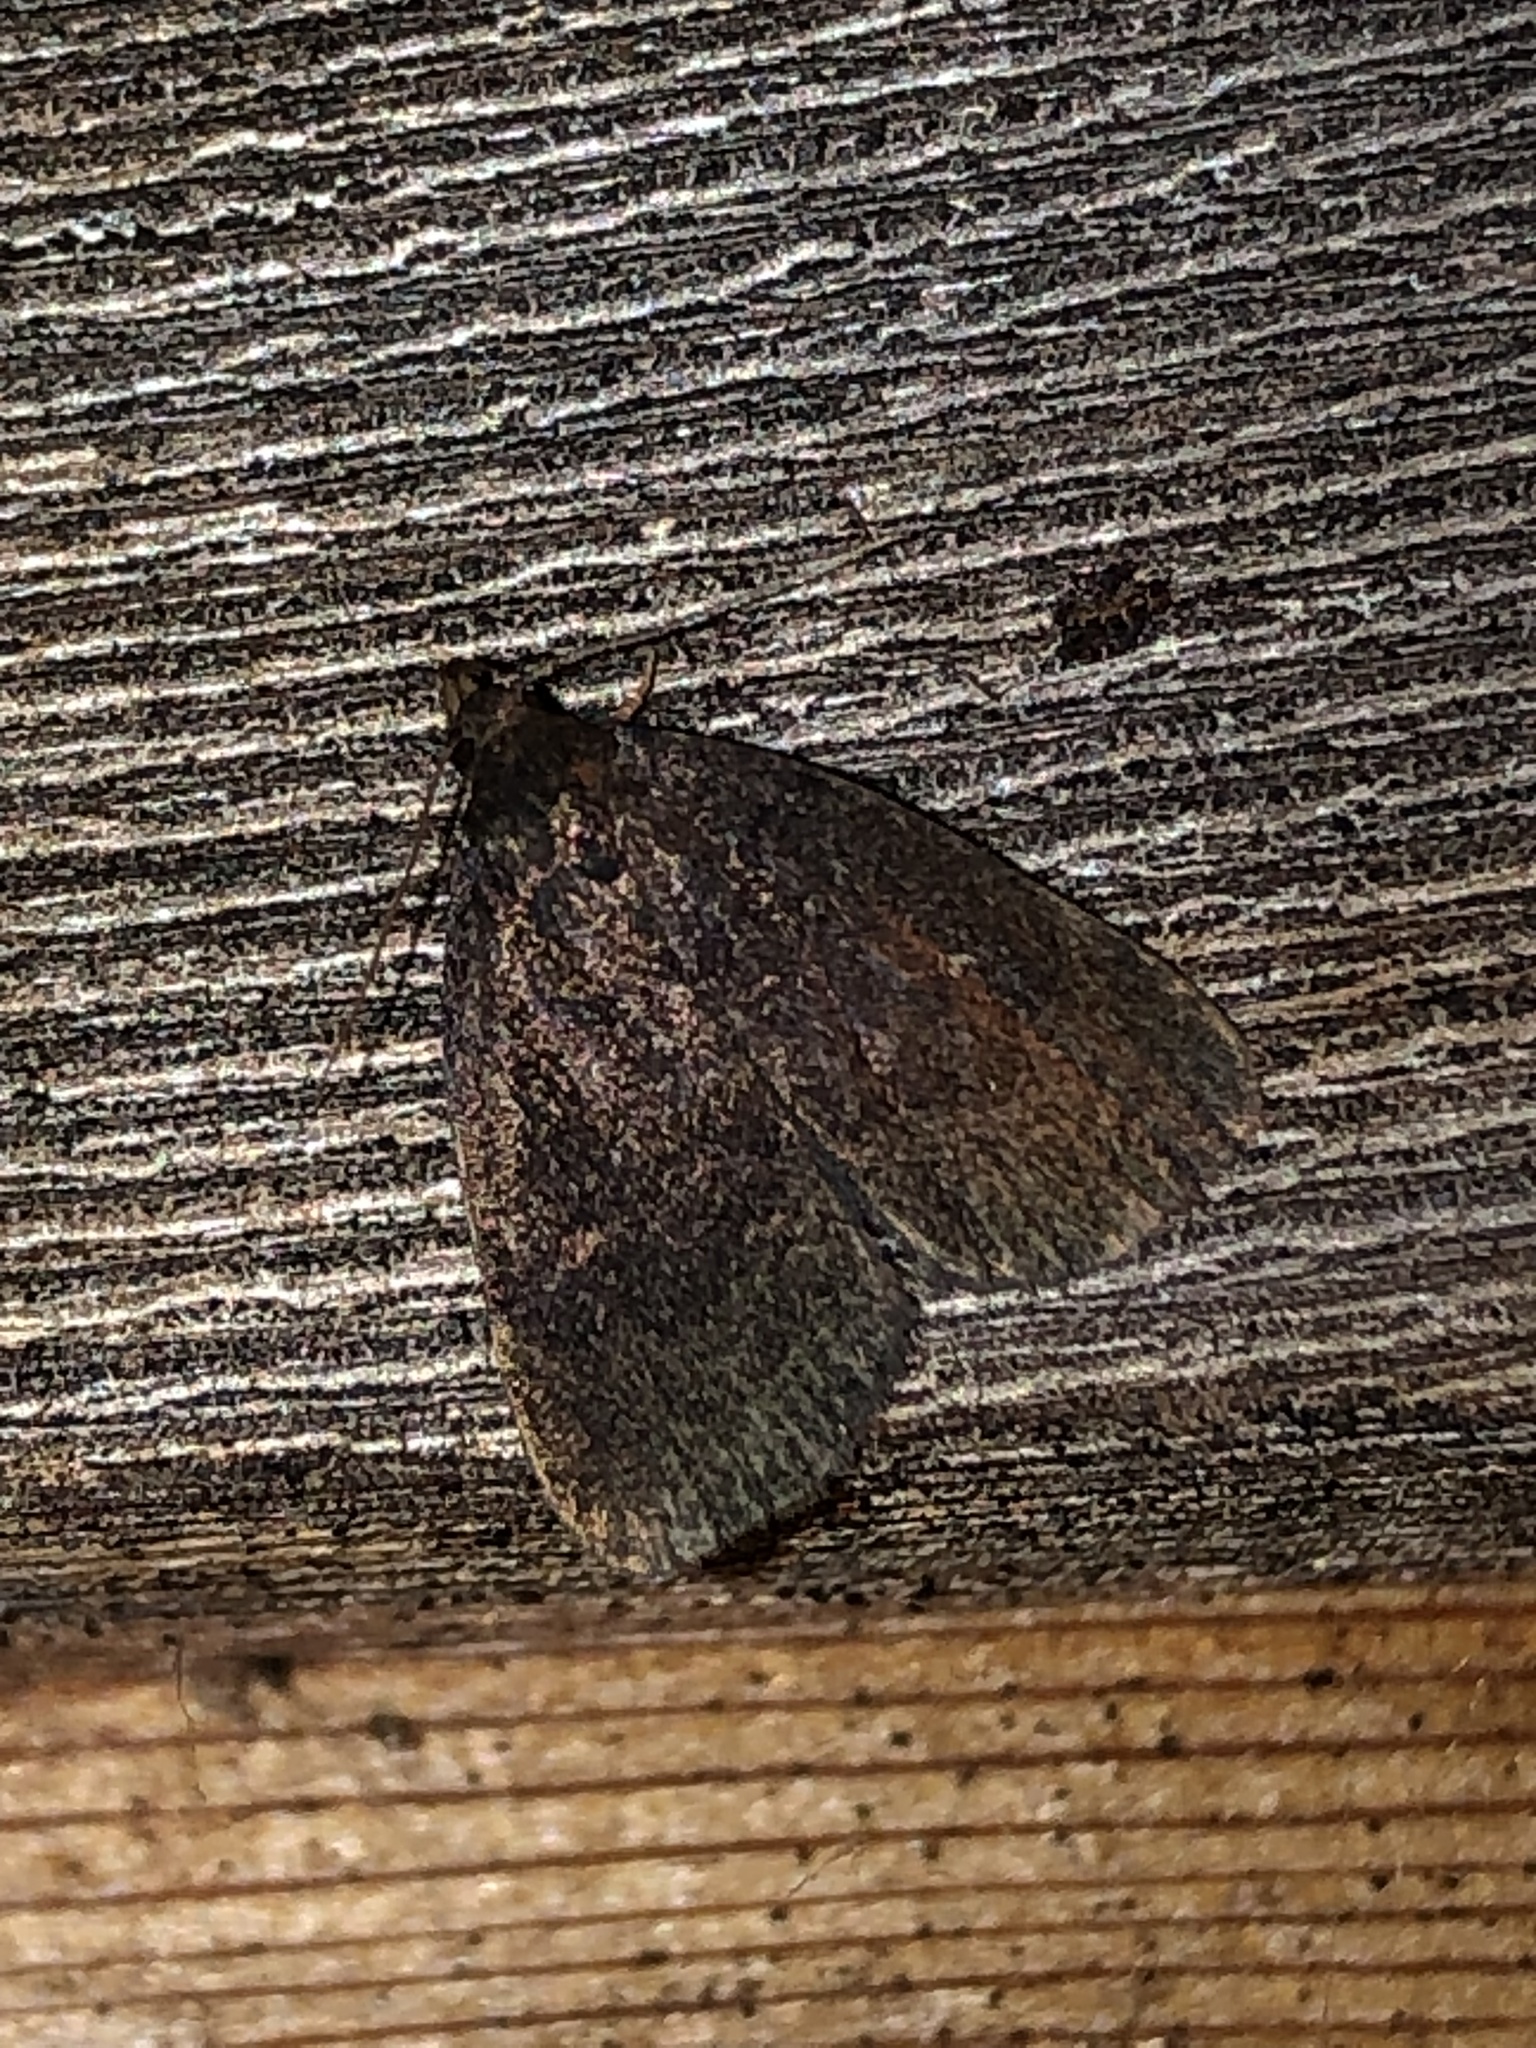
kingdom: Animalia
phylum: Arthropoda
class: Insecta
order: Lepidoptera
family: Erebidae
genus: Idia
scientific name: Idia rotundalis
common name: Rotund idia moth
